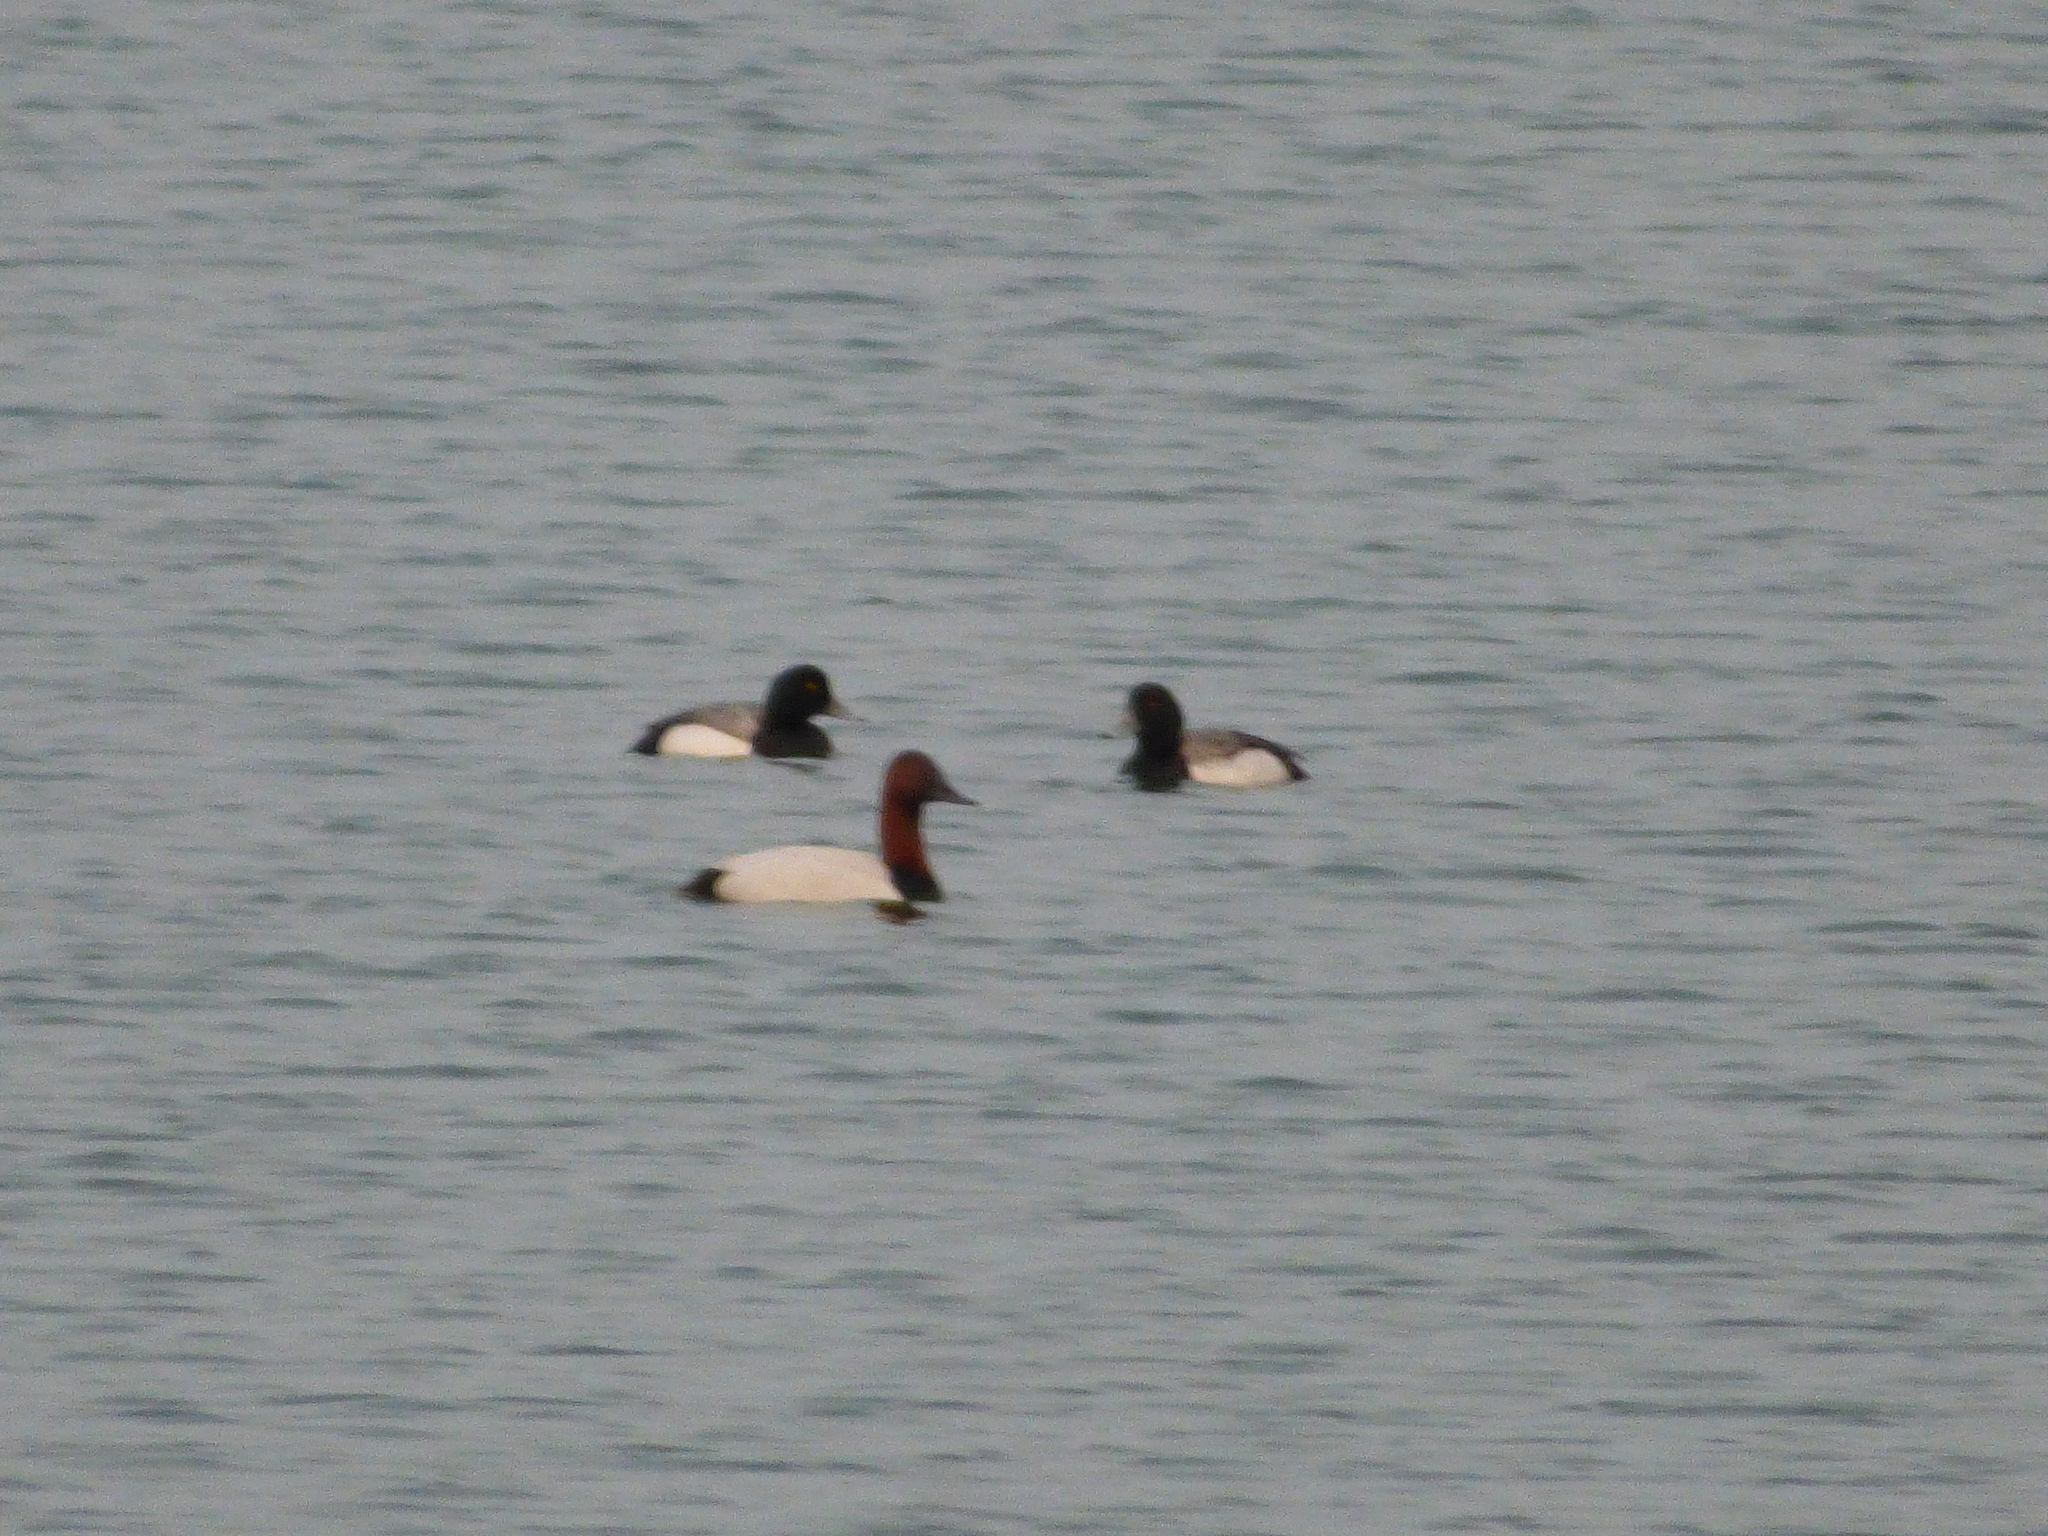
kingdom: Animalia
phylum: Chordata
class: Aves
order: Anseriformes
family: Anatidae
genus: Aythya
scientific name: Aythya valisineria
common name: Canvasback
